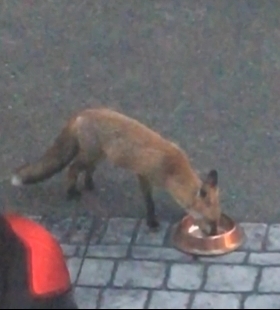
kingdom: Animalia
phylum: Chordata
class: Mammalia
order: Carnivora
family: Canidae
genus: Vulpes
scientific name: Vulpes vulpes
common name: Red fox
